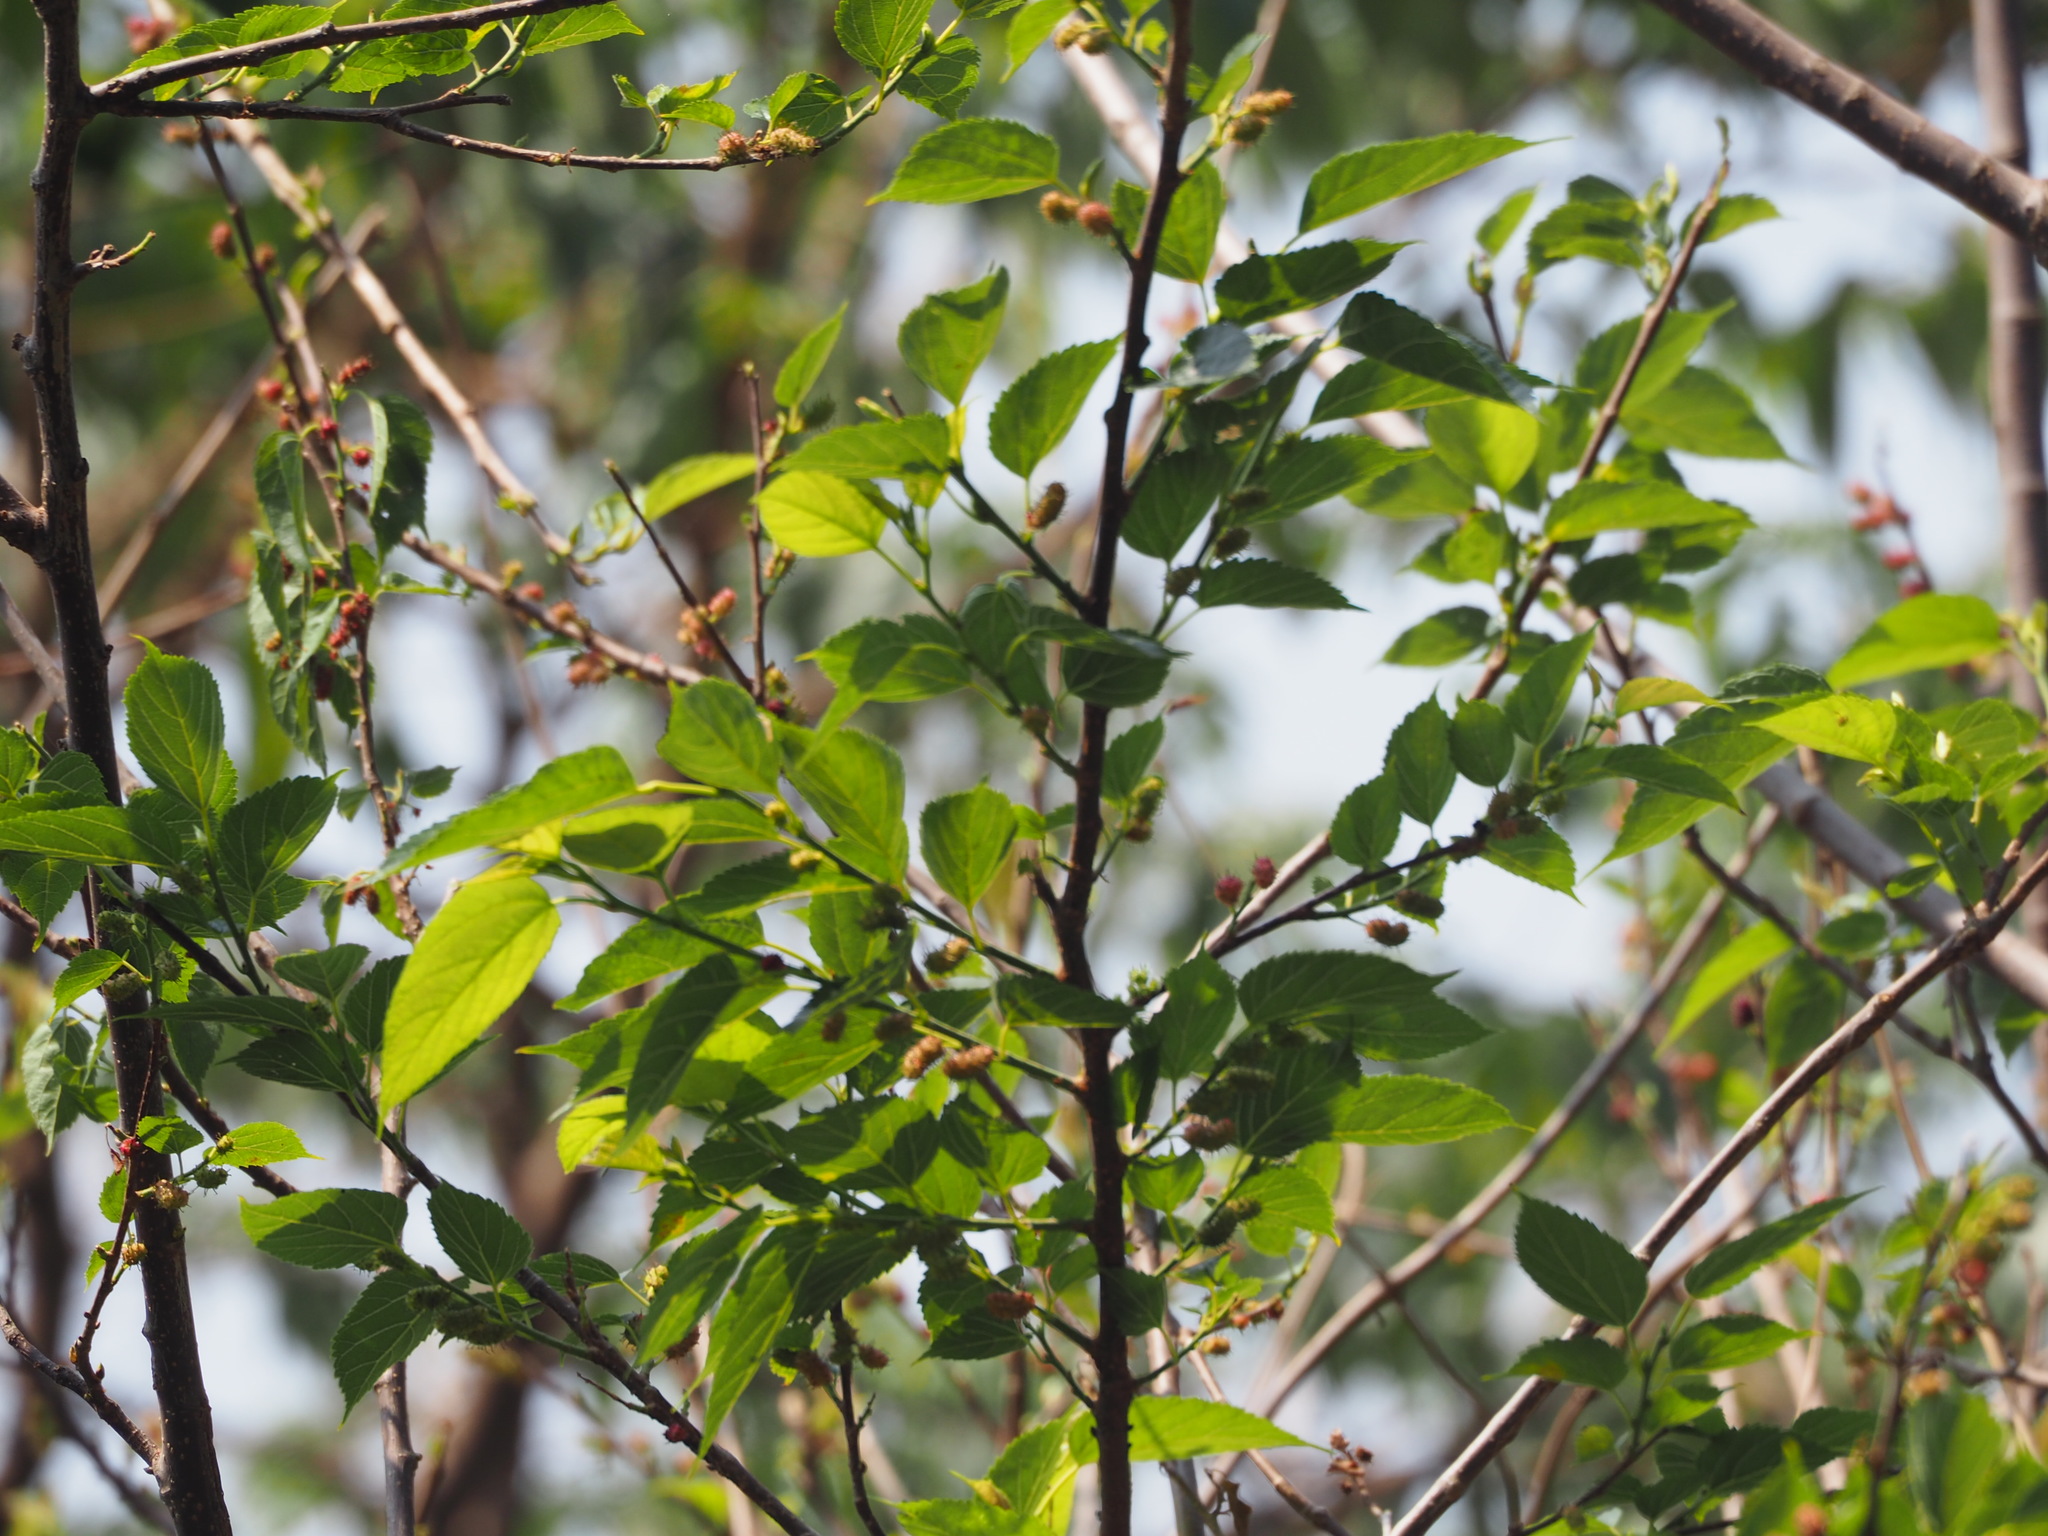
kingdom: Plantae
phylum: Tracheophyta
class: Magnoliopsida
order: Rosales
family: Moraceae
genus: Morus
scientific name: Morus indica
